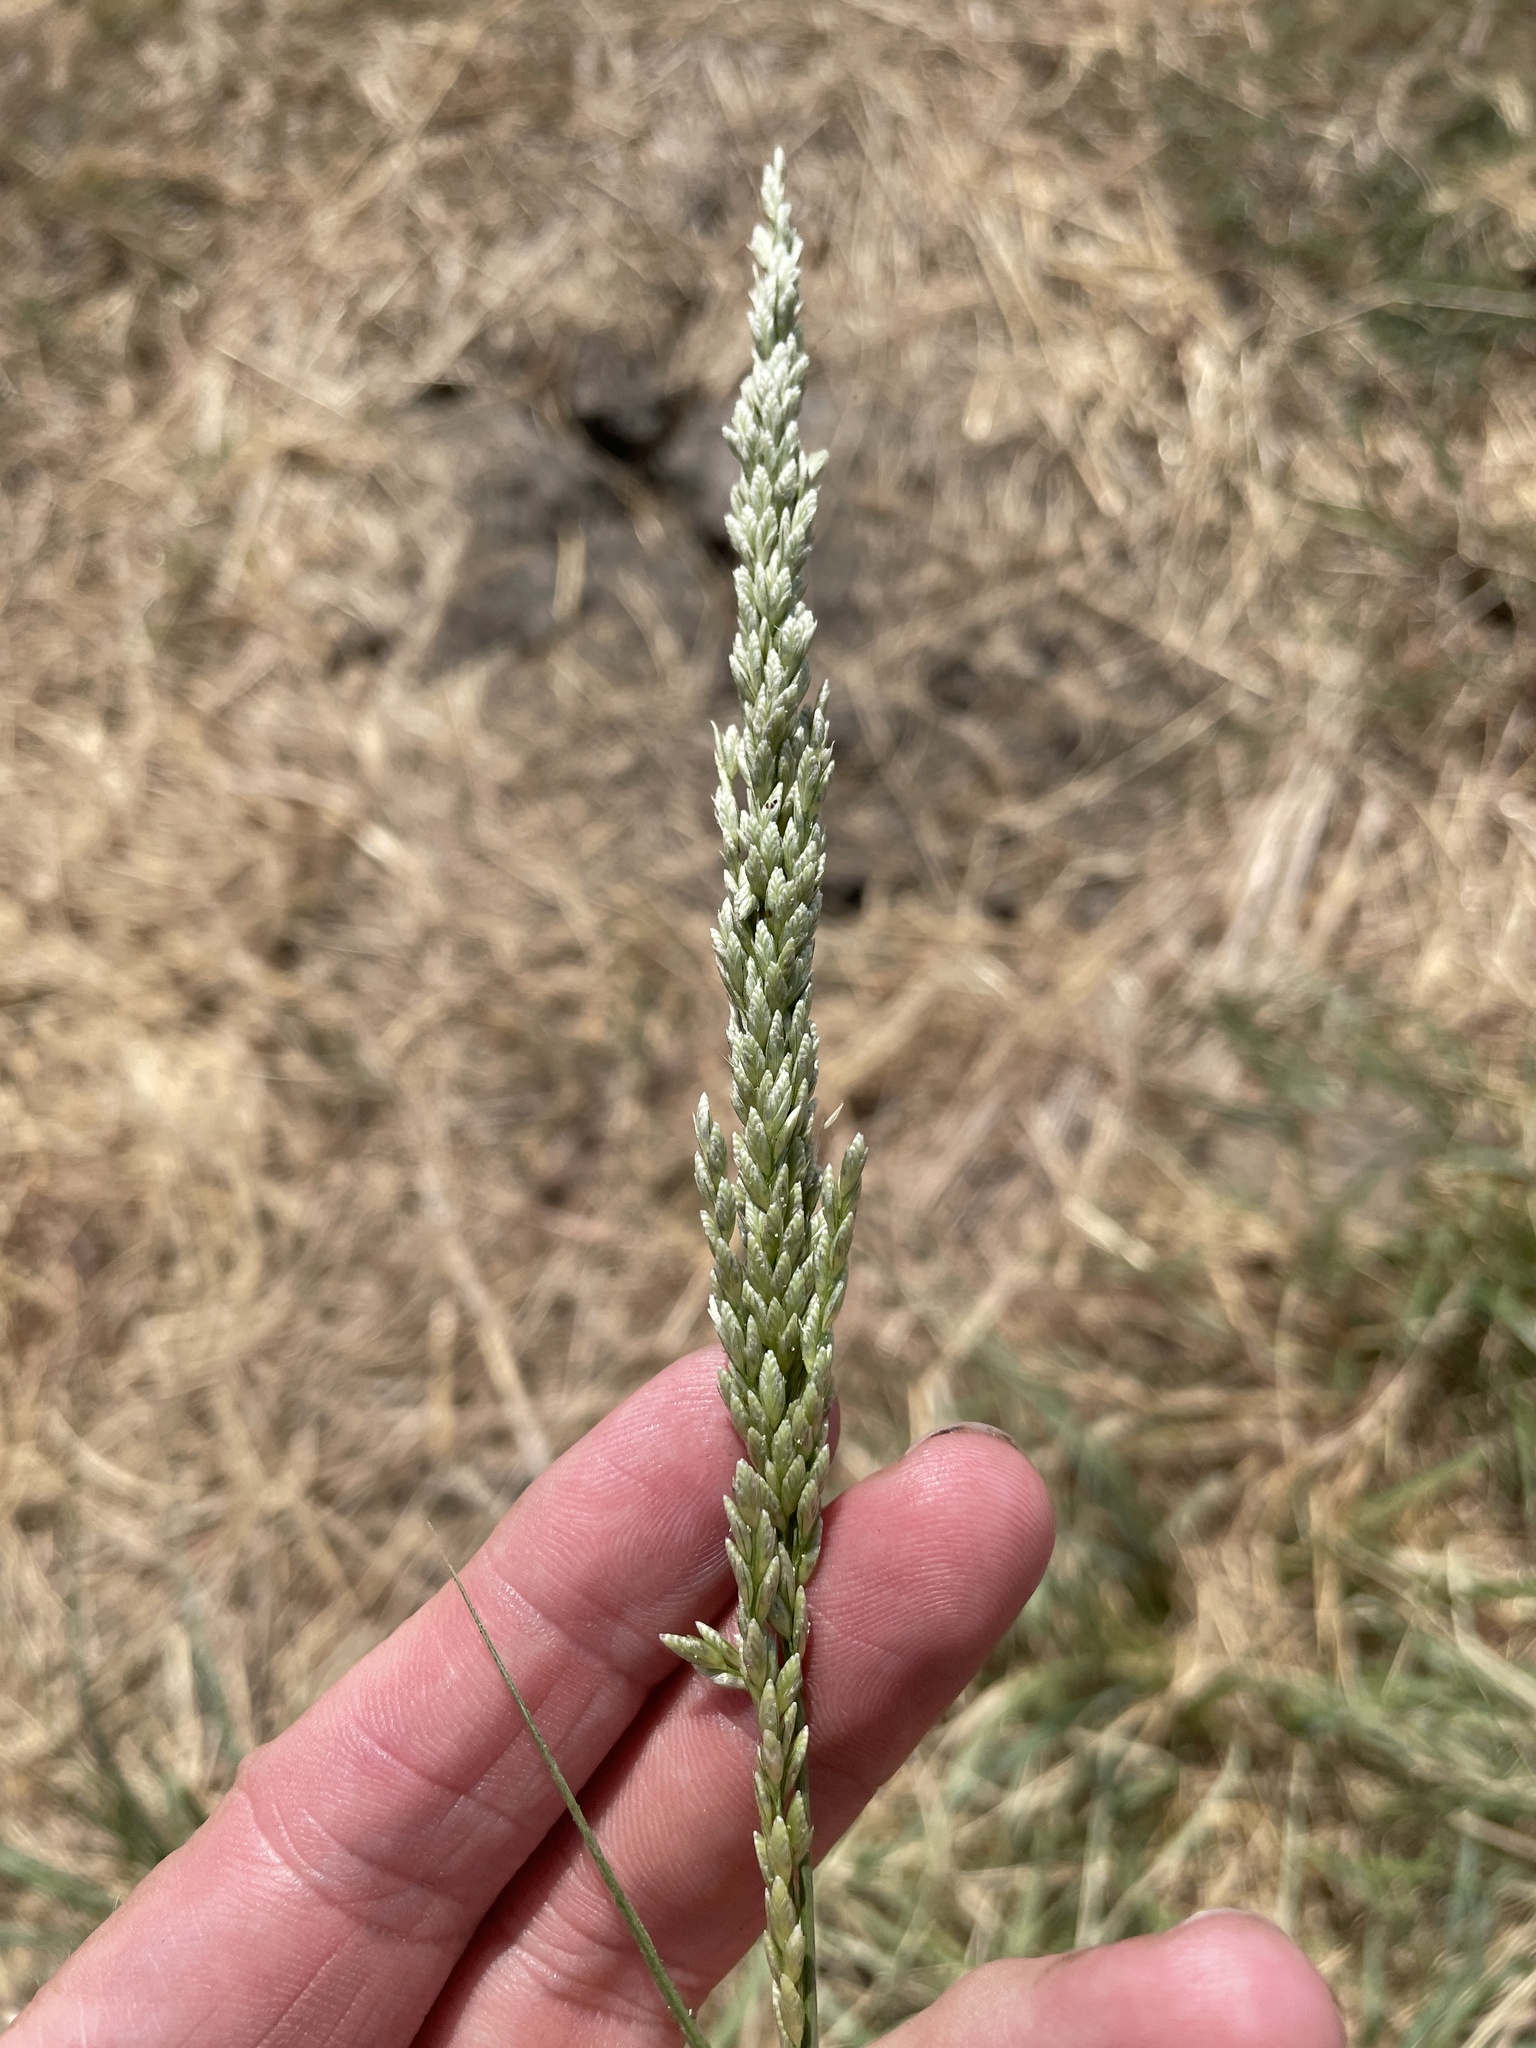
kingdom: Plantae
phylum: Tracheophyta
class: Liliopsida
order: Poales
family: Poaceae
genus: Tridens
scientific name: Tridens albescens
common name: White tridens
